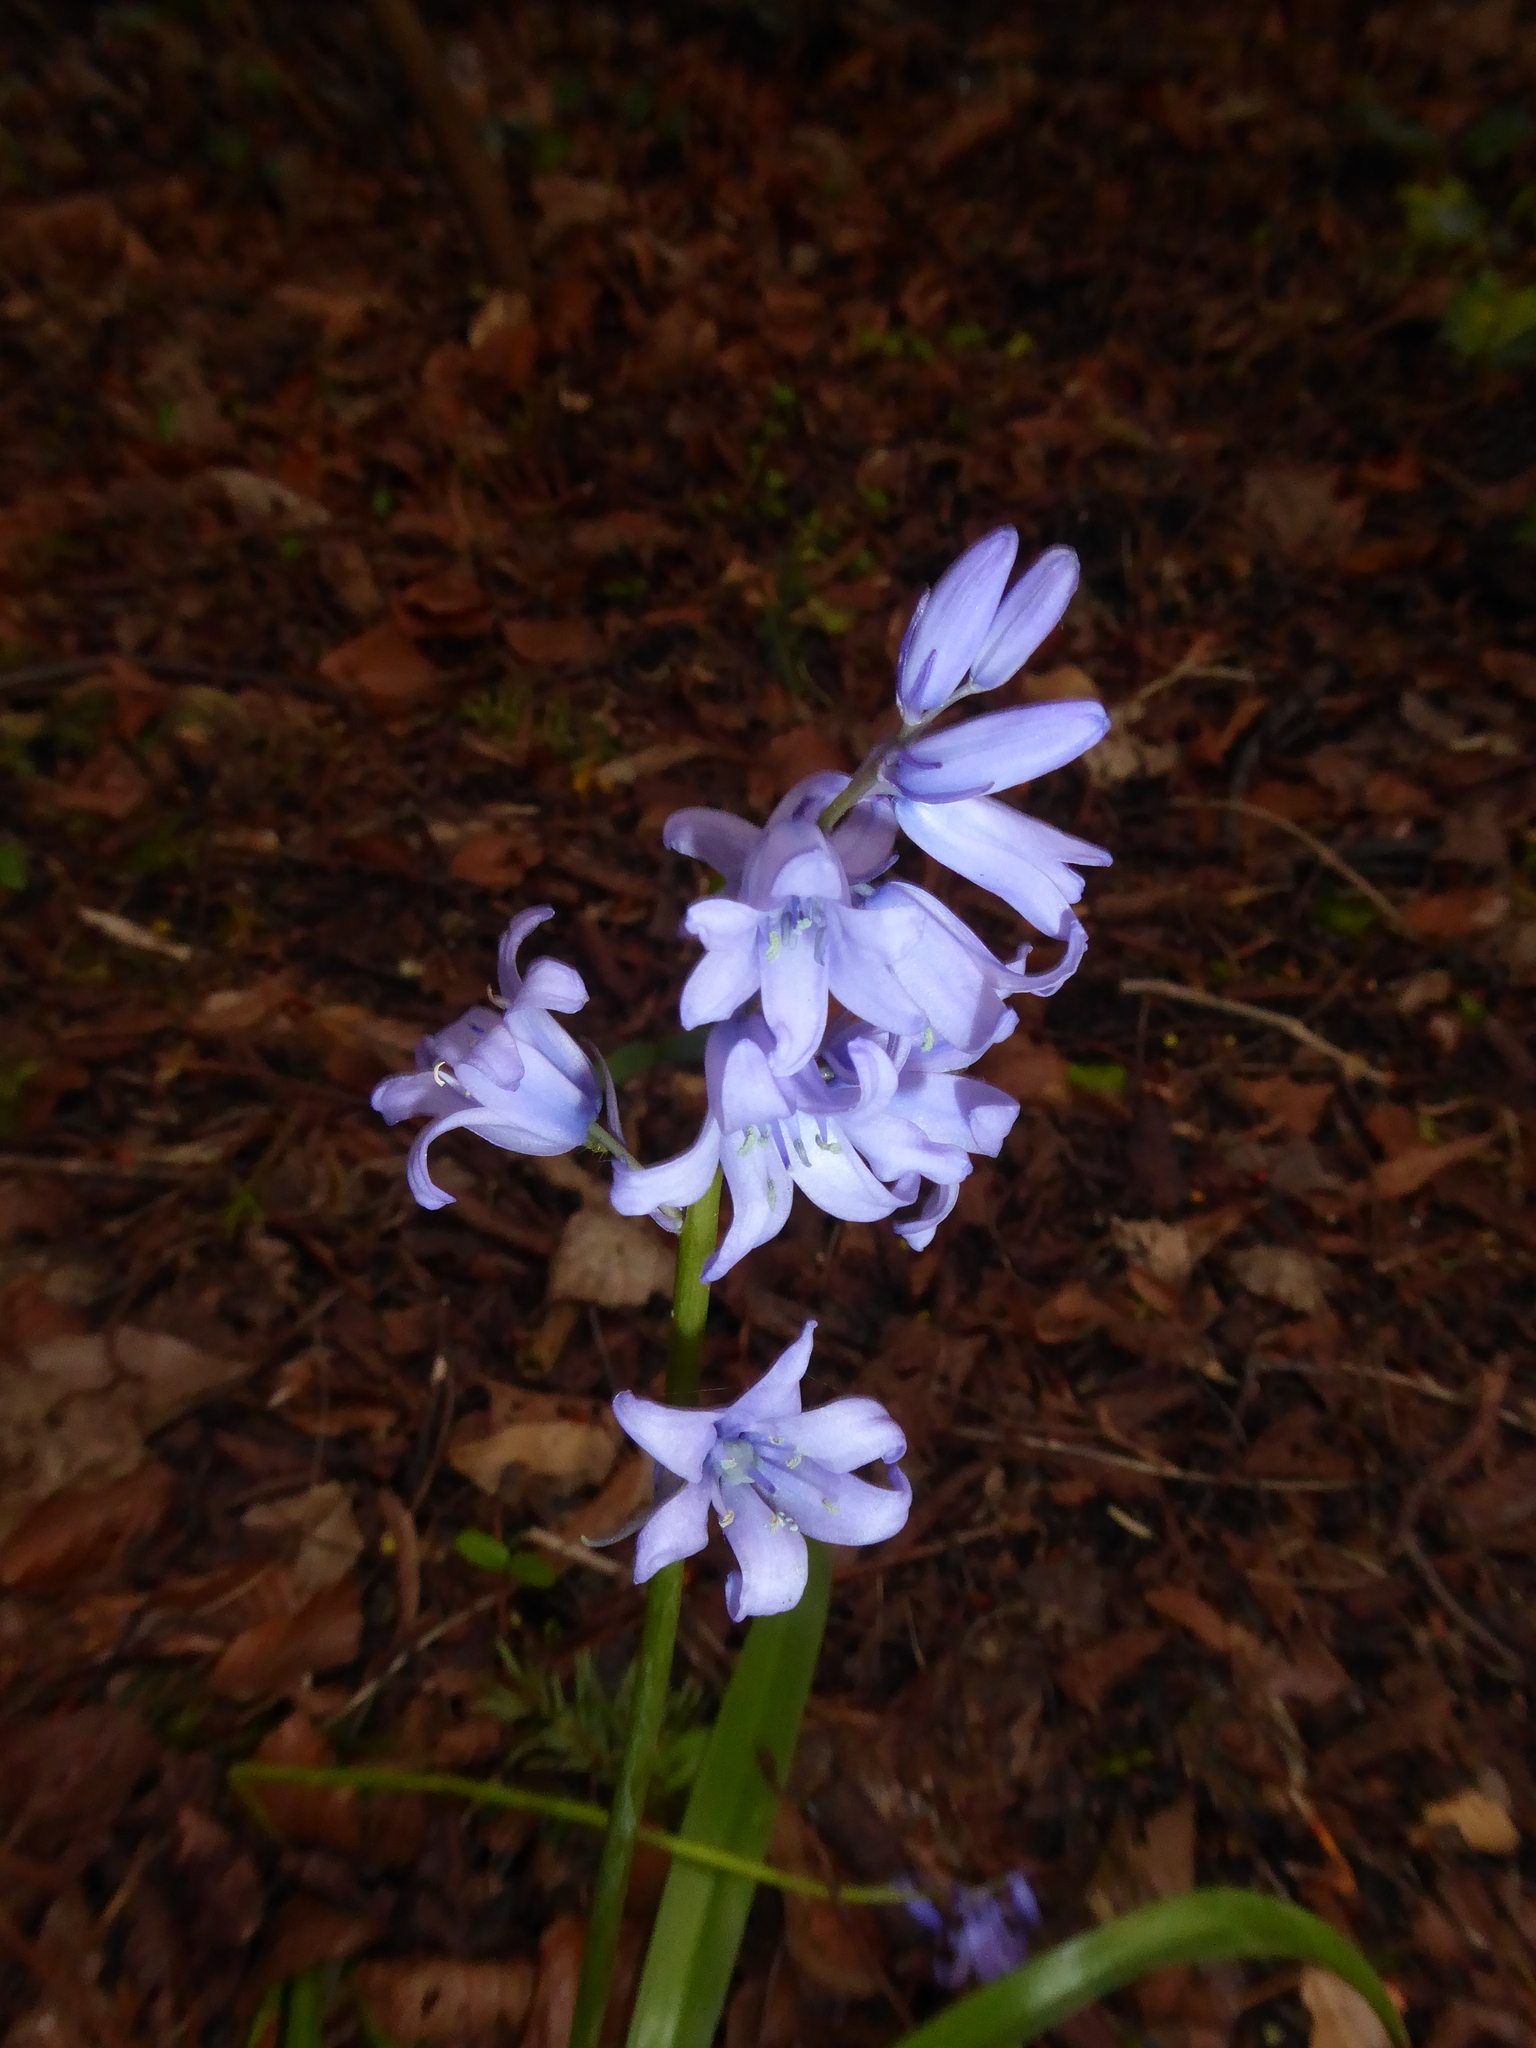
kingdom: Plantae
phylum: Tracheophyta
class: Liliopsida
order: Asparagales
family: Asparagaceae
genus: Hyacinthoides
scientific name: Hyacinthoides massartiana
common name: Hyacinthoides
